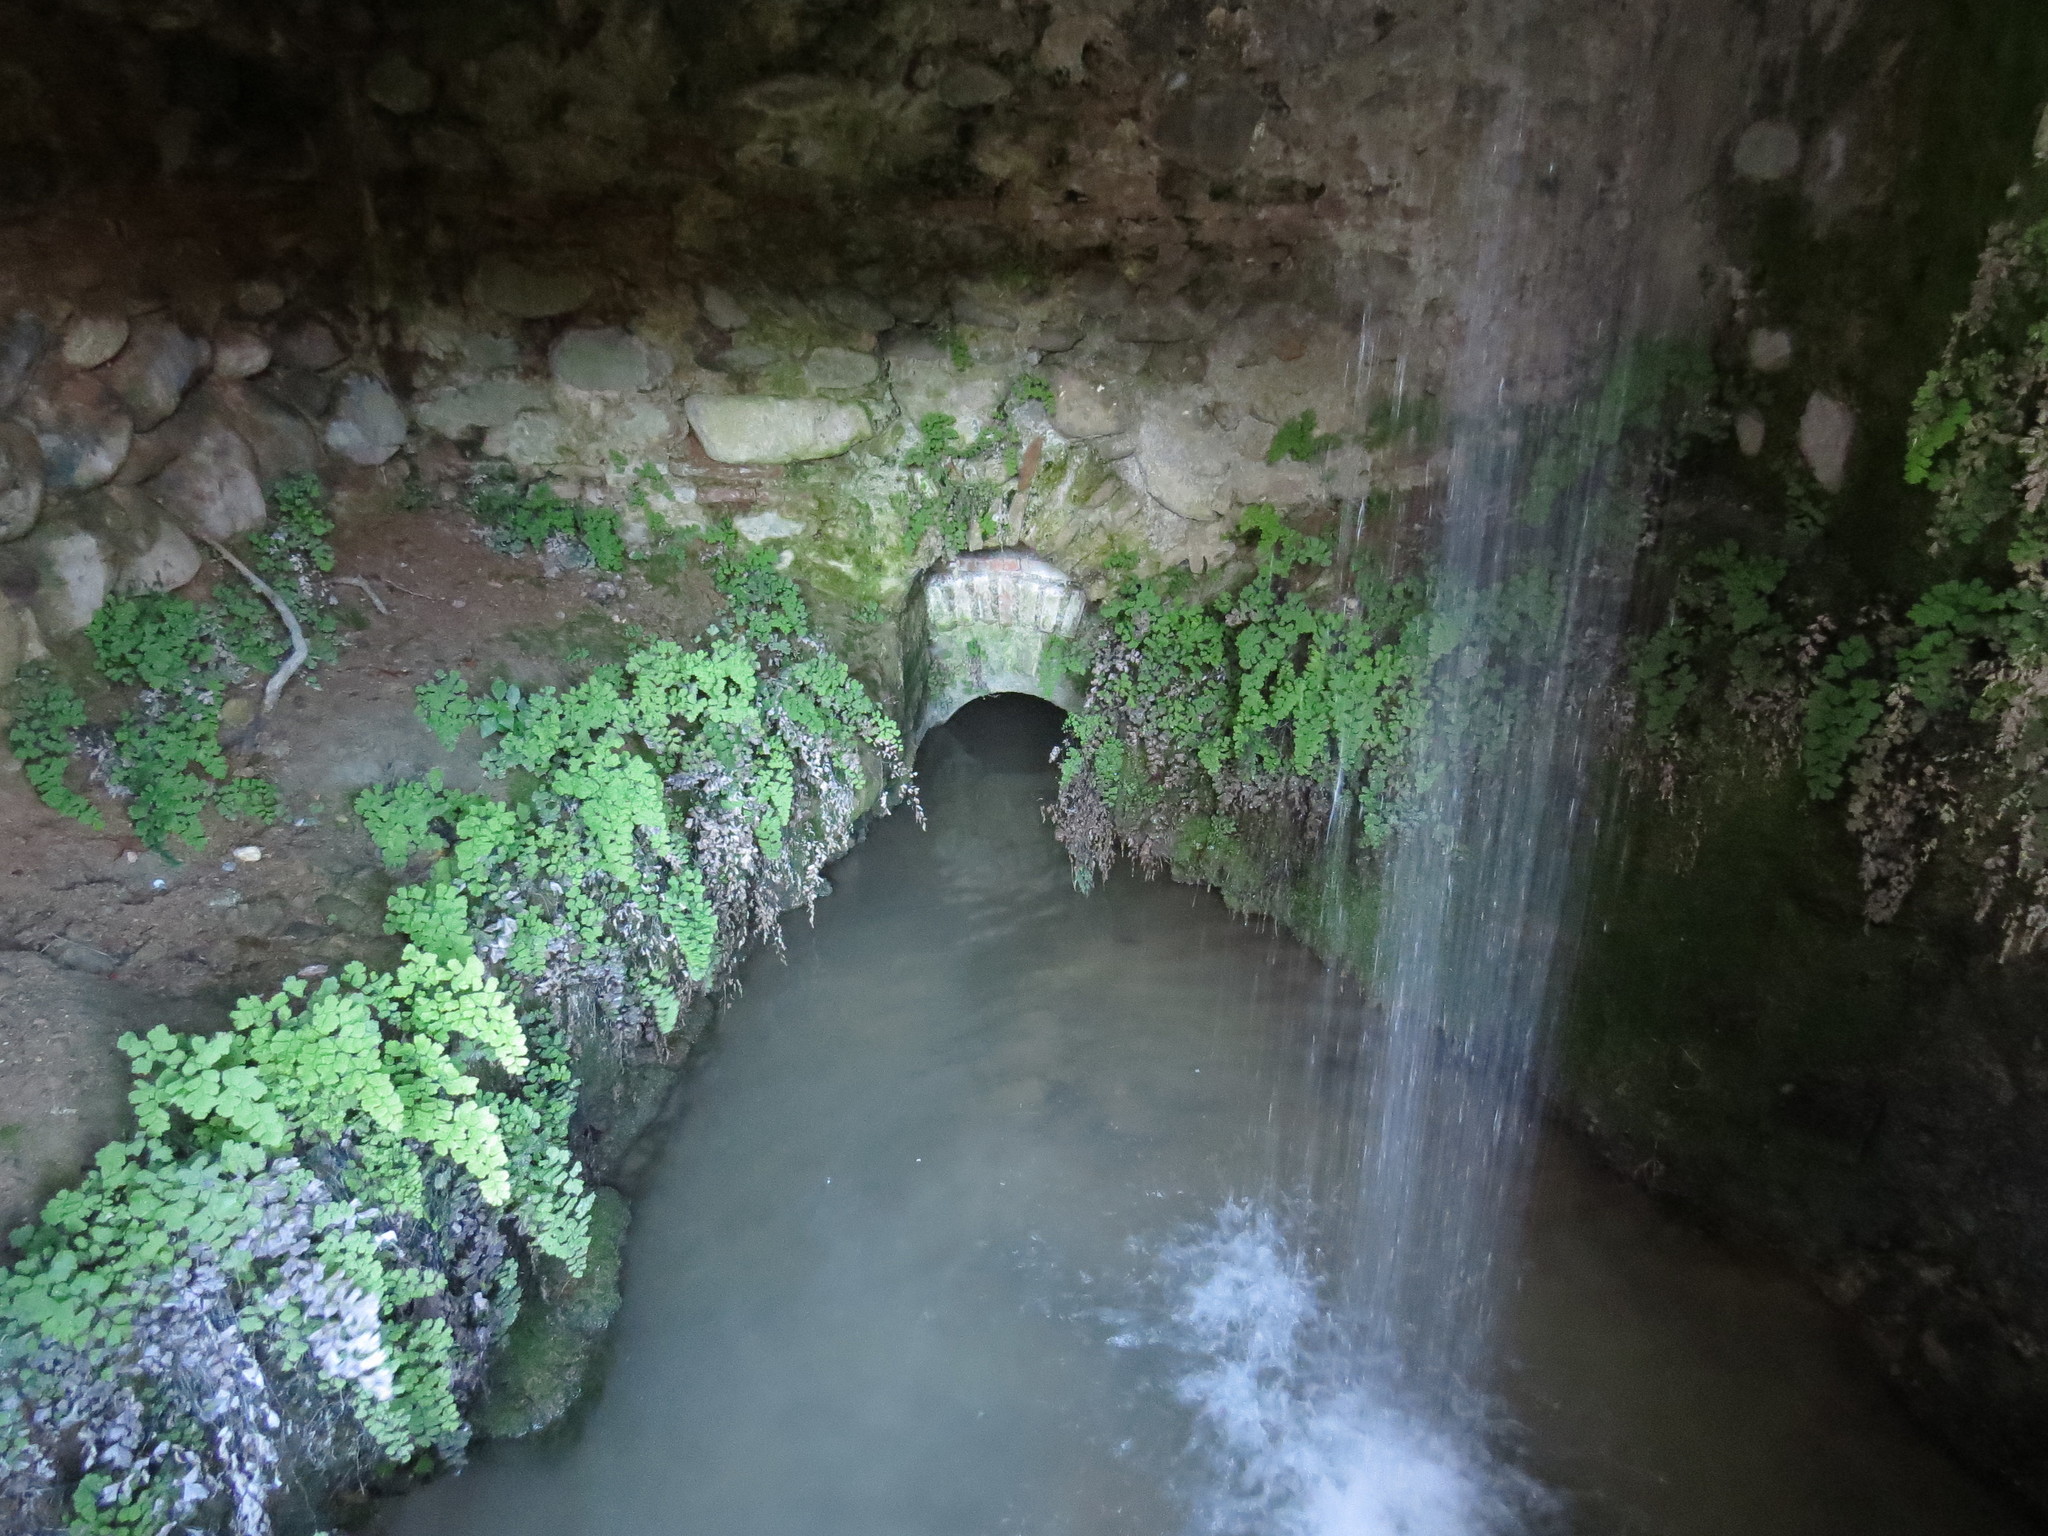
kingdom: Plantae
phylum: Tracheophyta
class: Polypodiopsida
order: Polypodiales
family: Pteridaceae
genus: Adiantum
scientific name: Adiantum capillus-veneris
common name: Maidenhair fern
